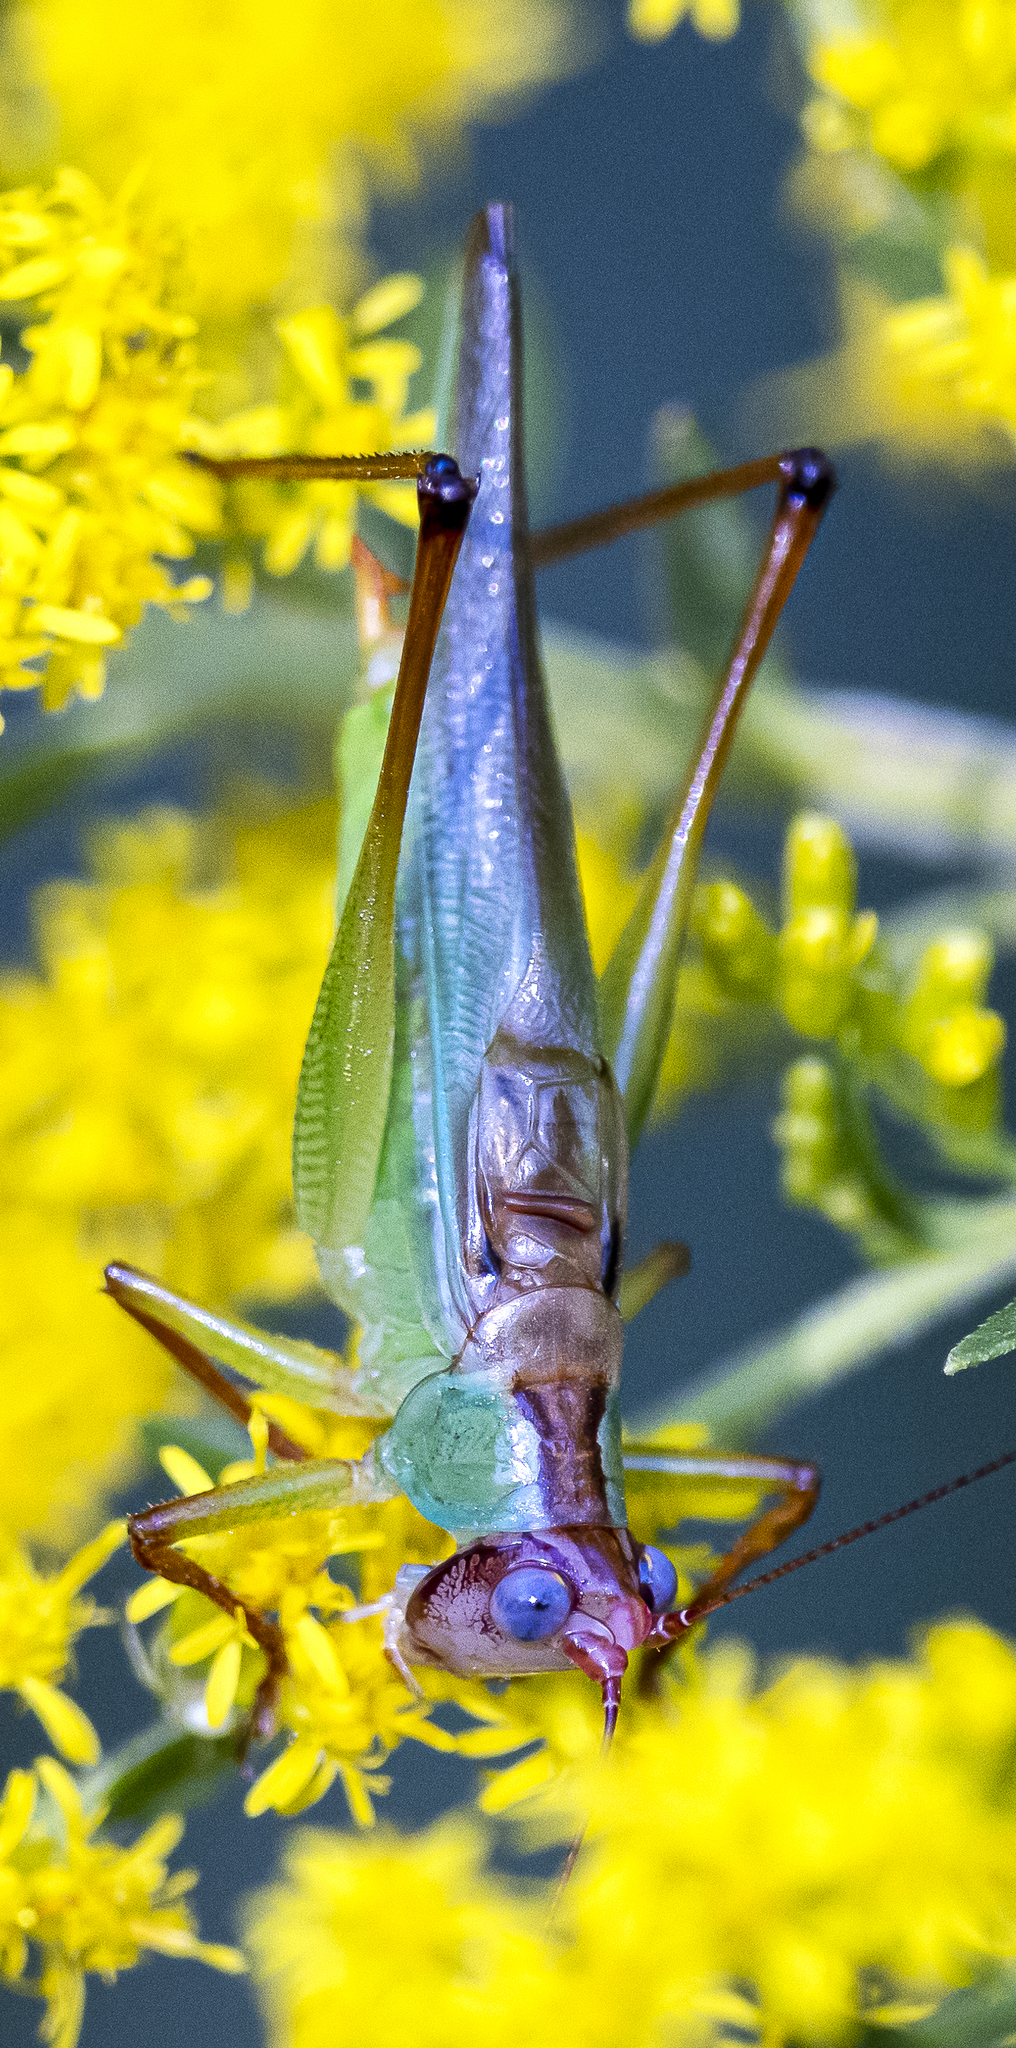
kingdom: Animalia
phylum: Arthropoda
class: Insecta
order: Orthoptera
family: Tettigoniidae
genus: Orchelimum
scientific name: Orchelimum pulchellum
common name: Handsome meadow katydid
